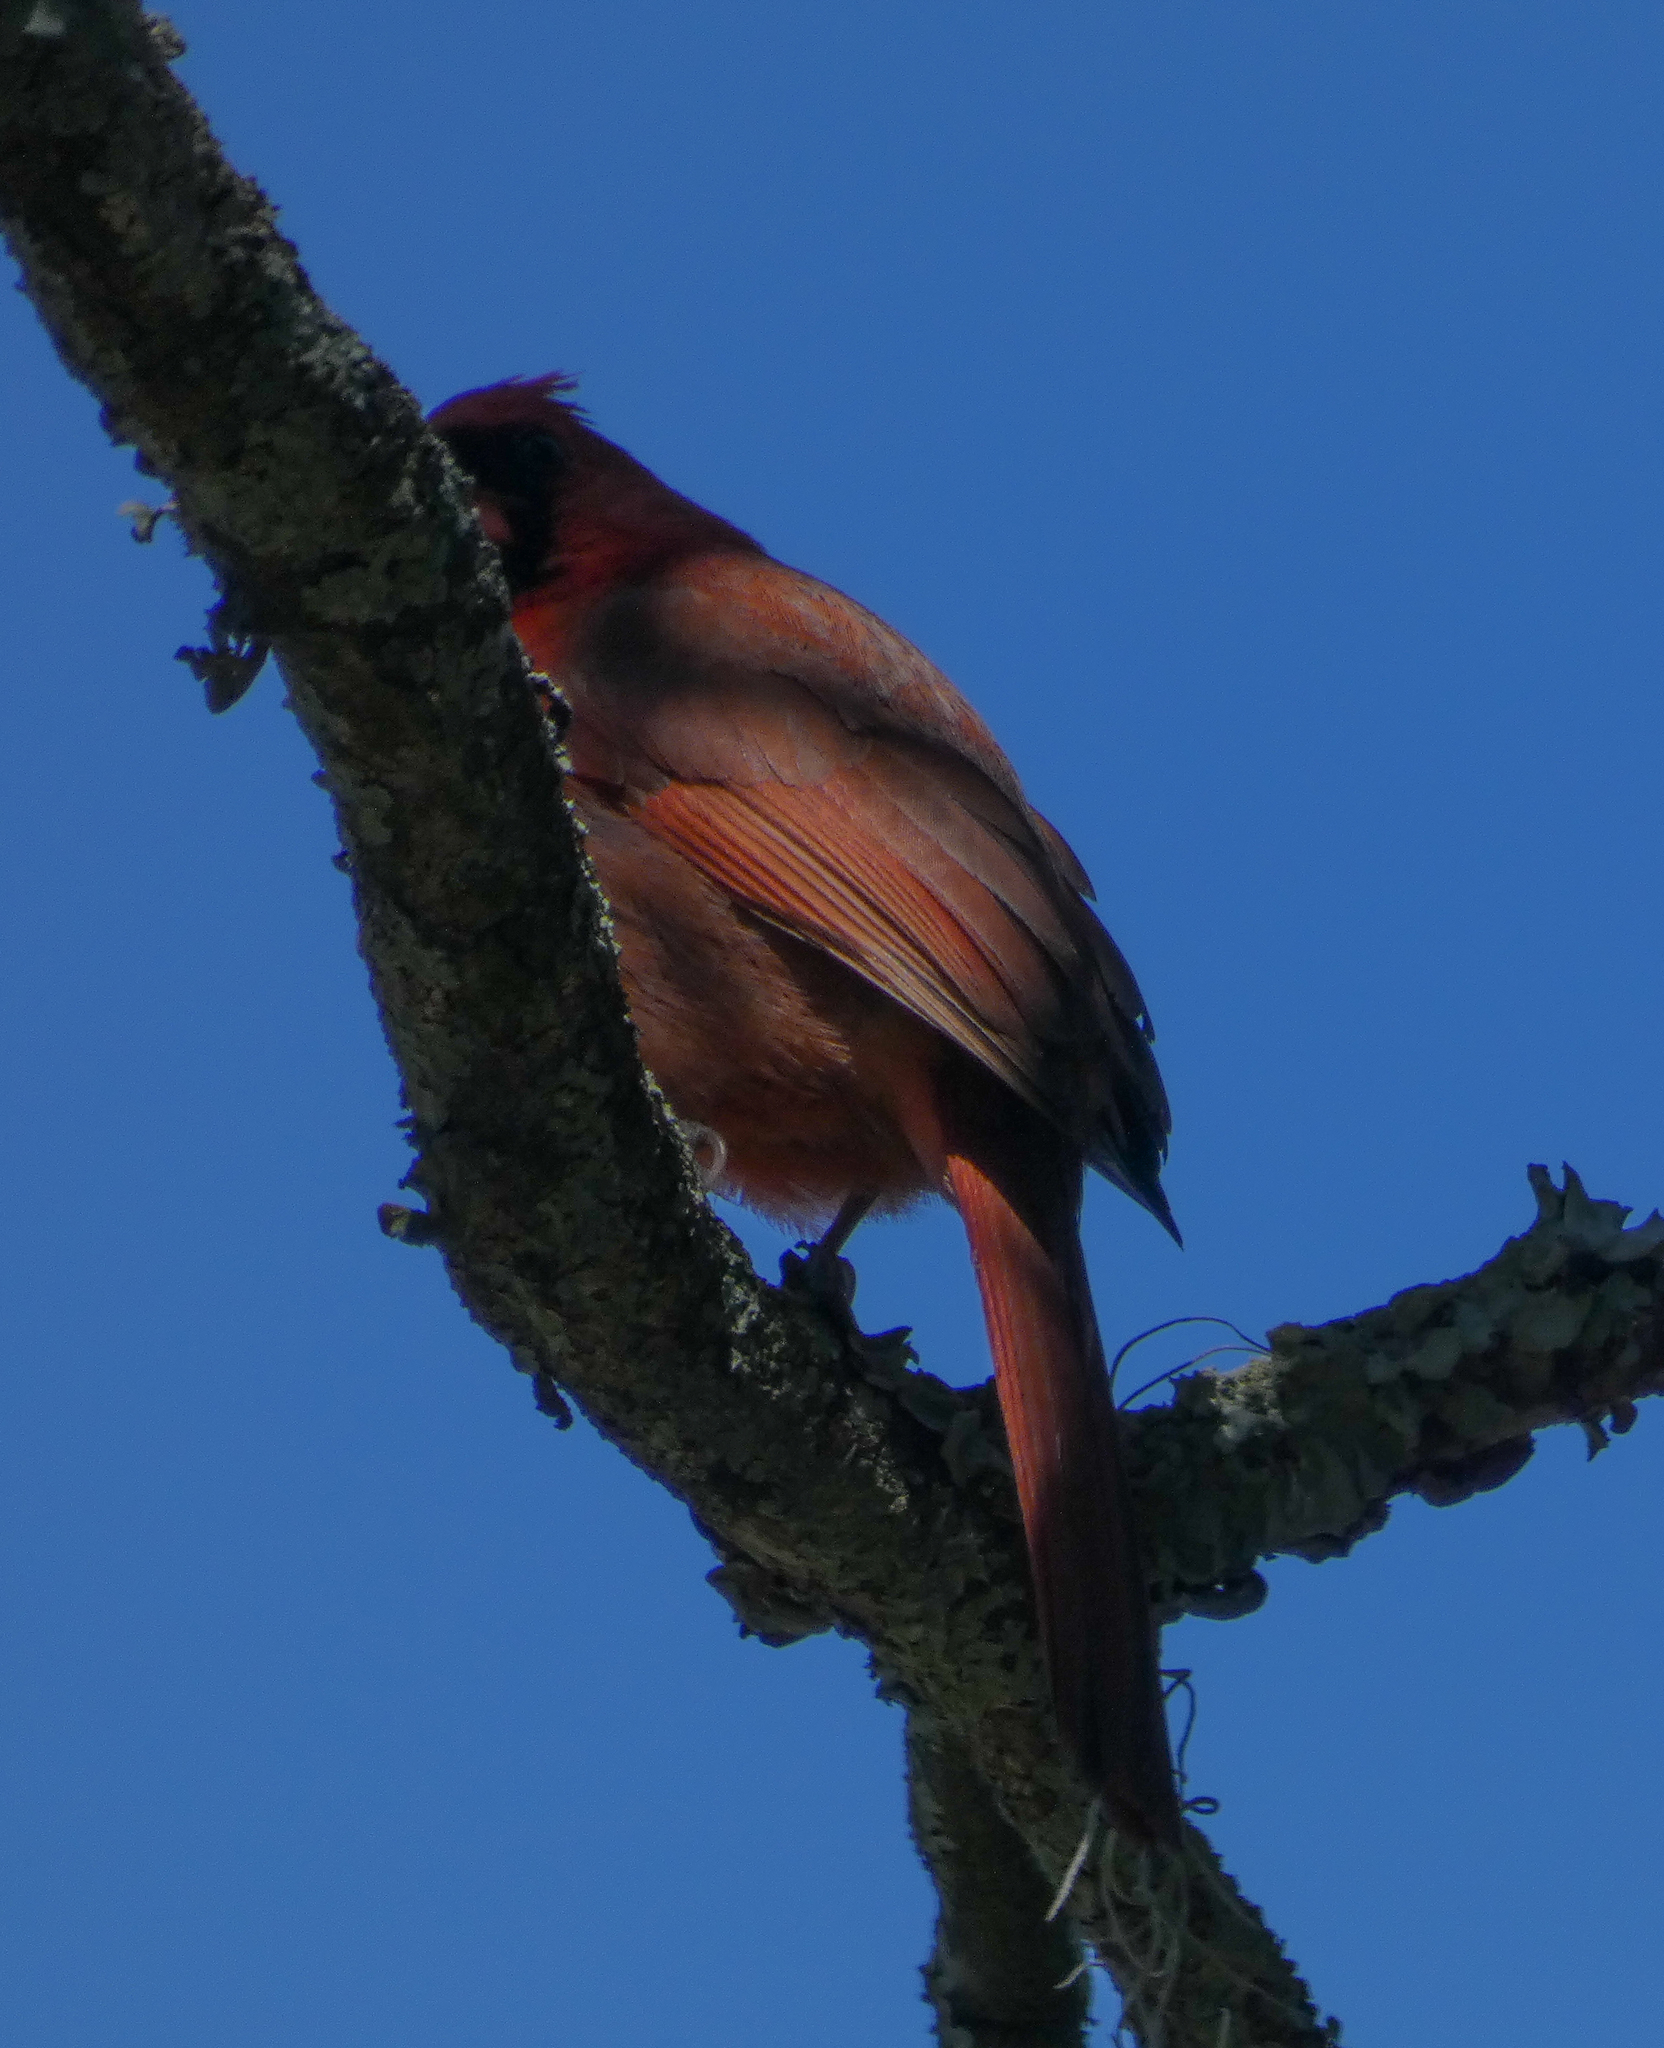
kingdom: Animalia
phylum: Chordata
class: Aves
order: Passeriformes
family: Cardinalidae
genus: Cardinalis
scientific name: Cardinalis cardinalis
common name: Northern cardinal
